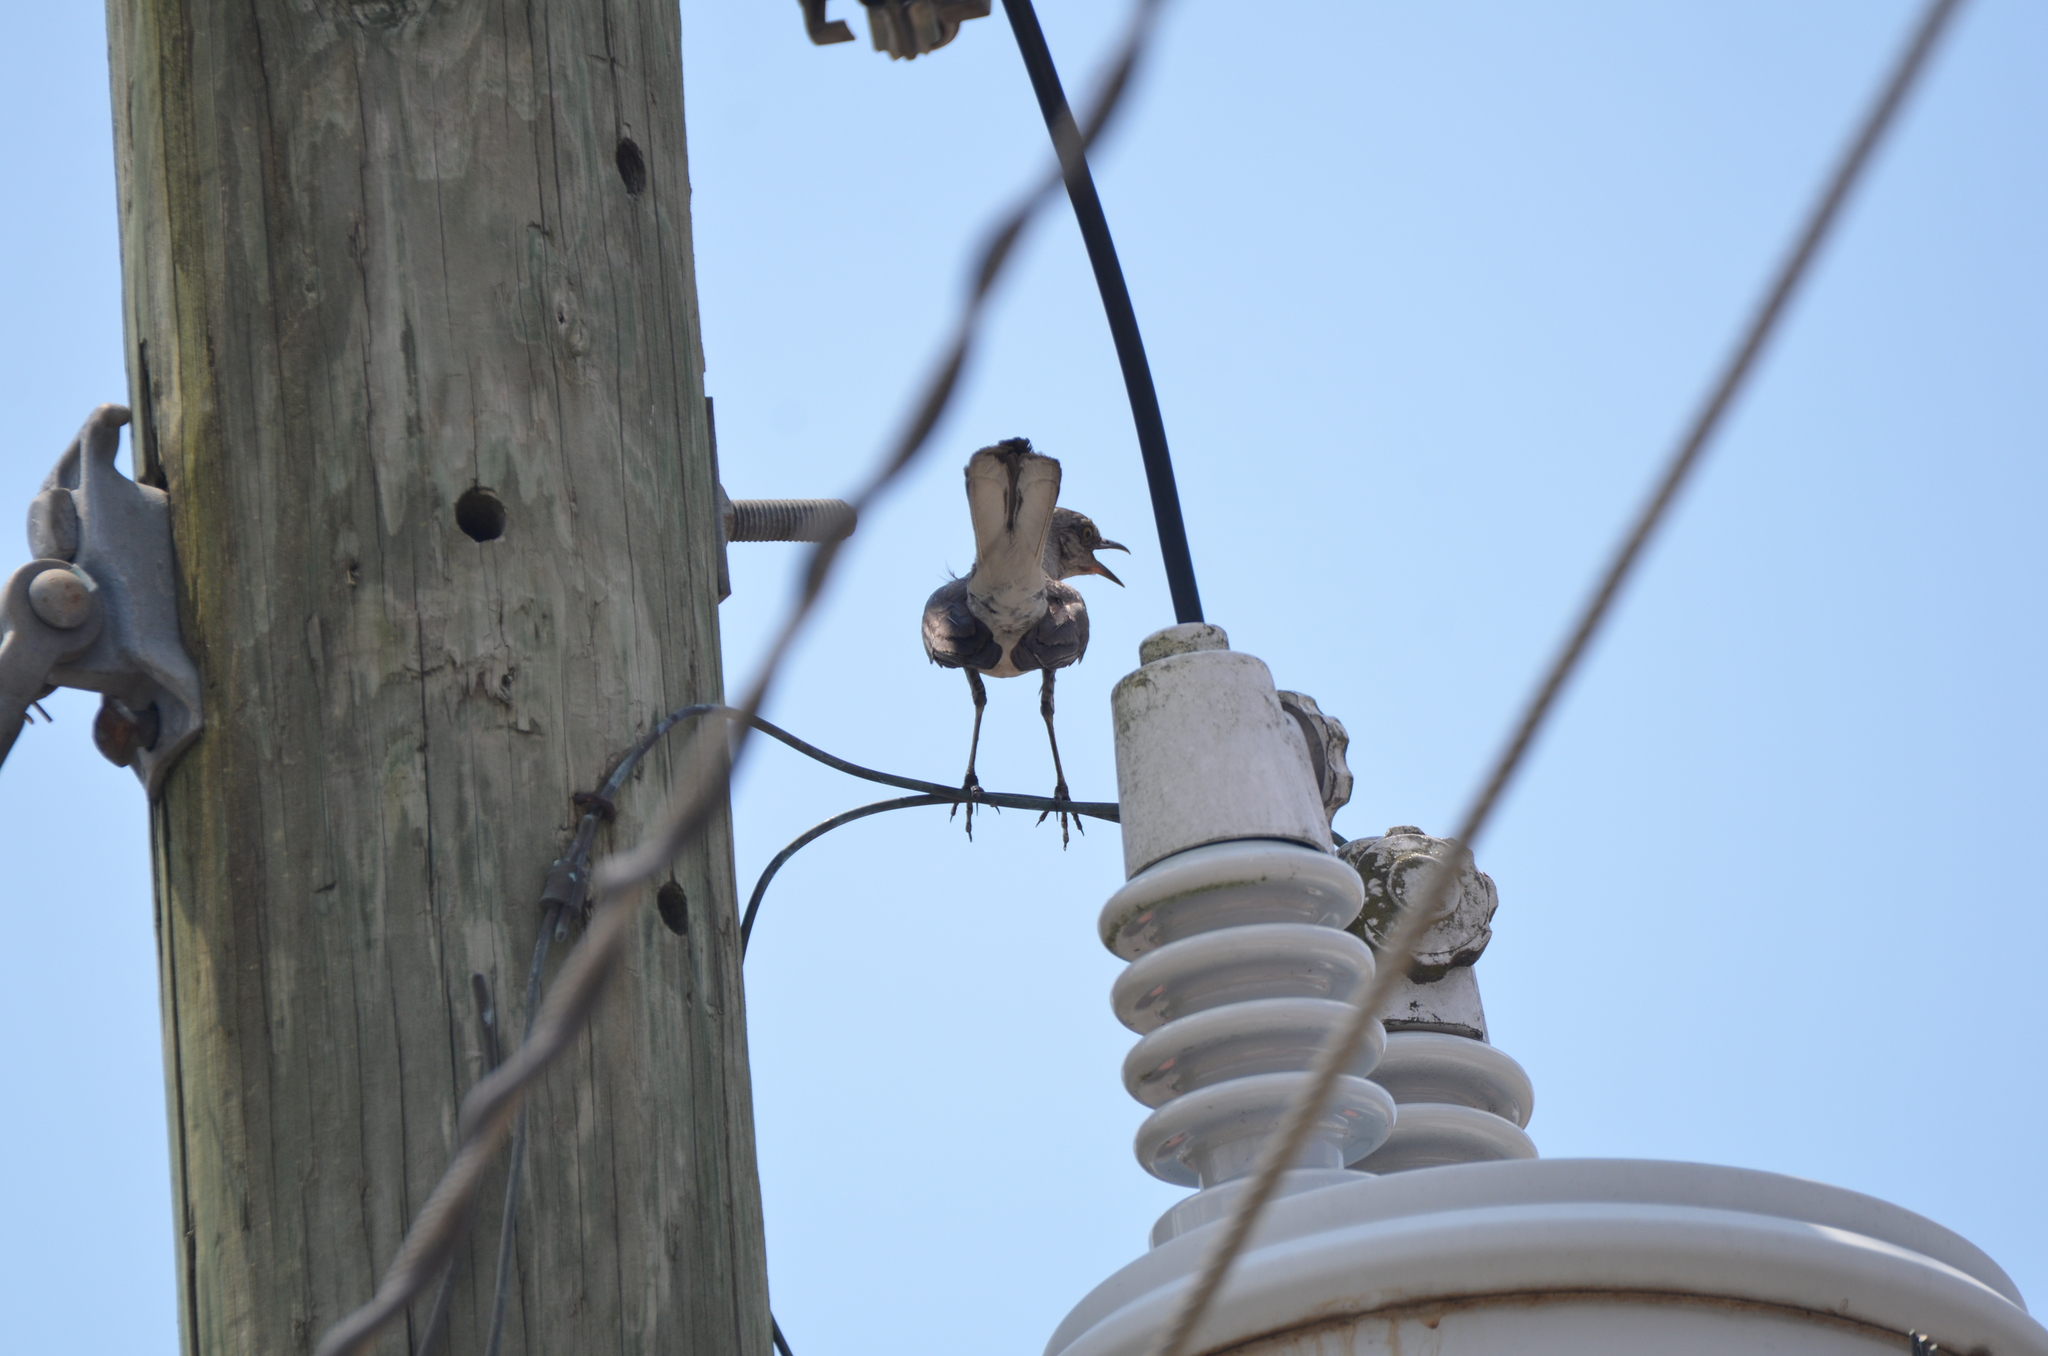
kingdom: Animalia
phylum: Chordata
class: Aves
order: Passeriformes
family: Mimidae
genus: Mimus
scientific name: Mimus polyglottos
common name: Northern mockingbird
